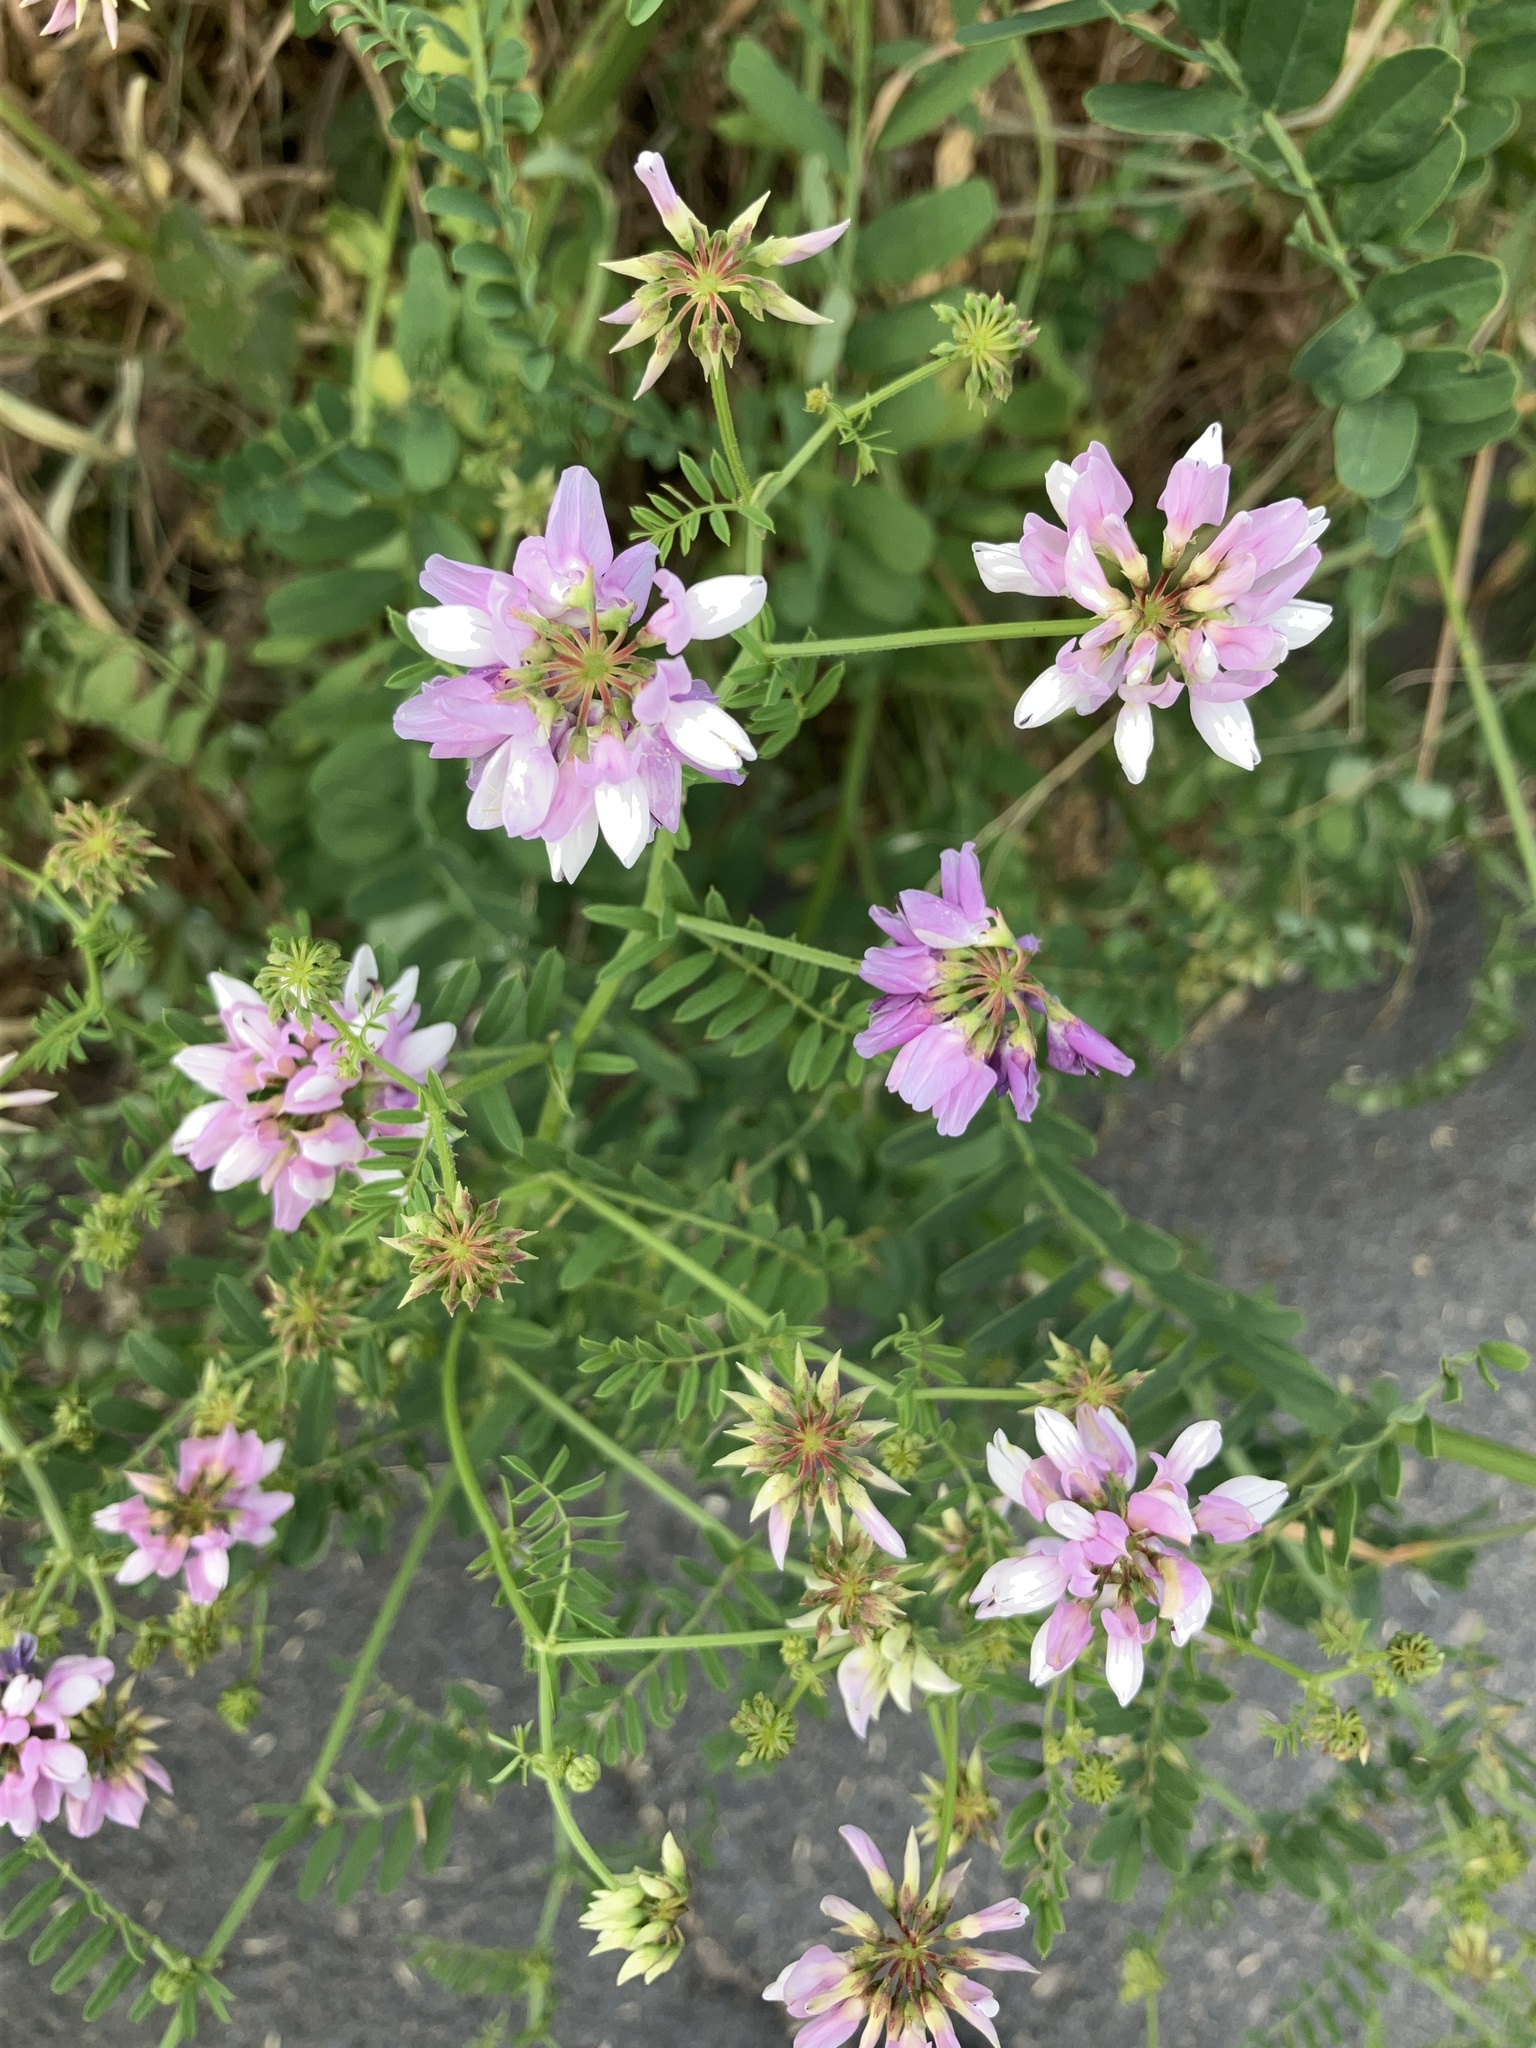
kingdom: Plantae
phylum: Tracheophyta
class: Magnoliopsida
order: Fabales
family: Fabaceae
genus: Coronilla
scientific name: Coronilla varia
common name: Crownvetch
